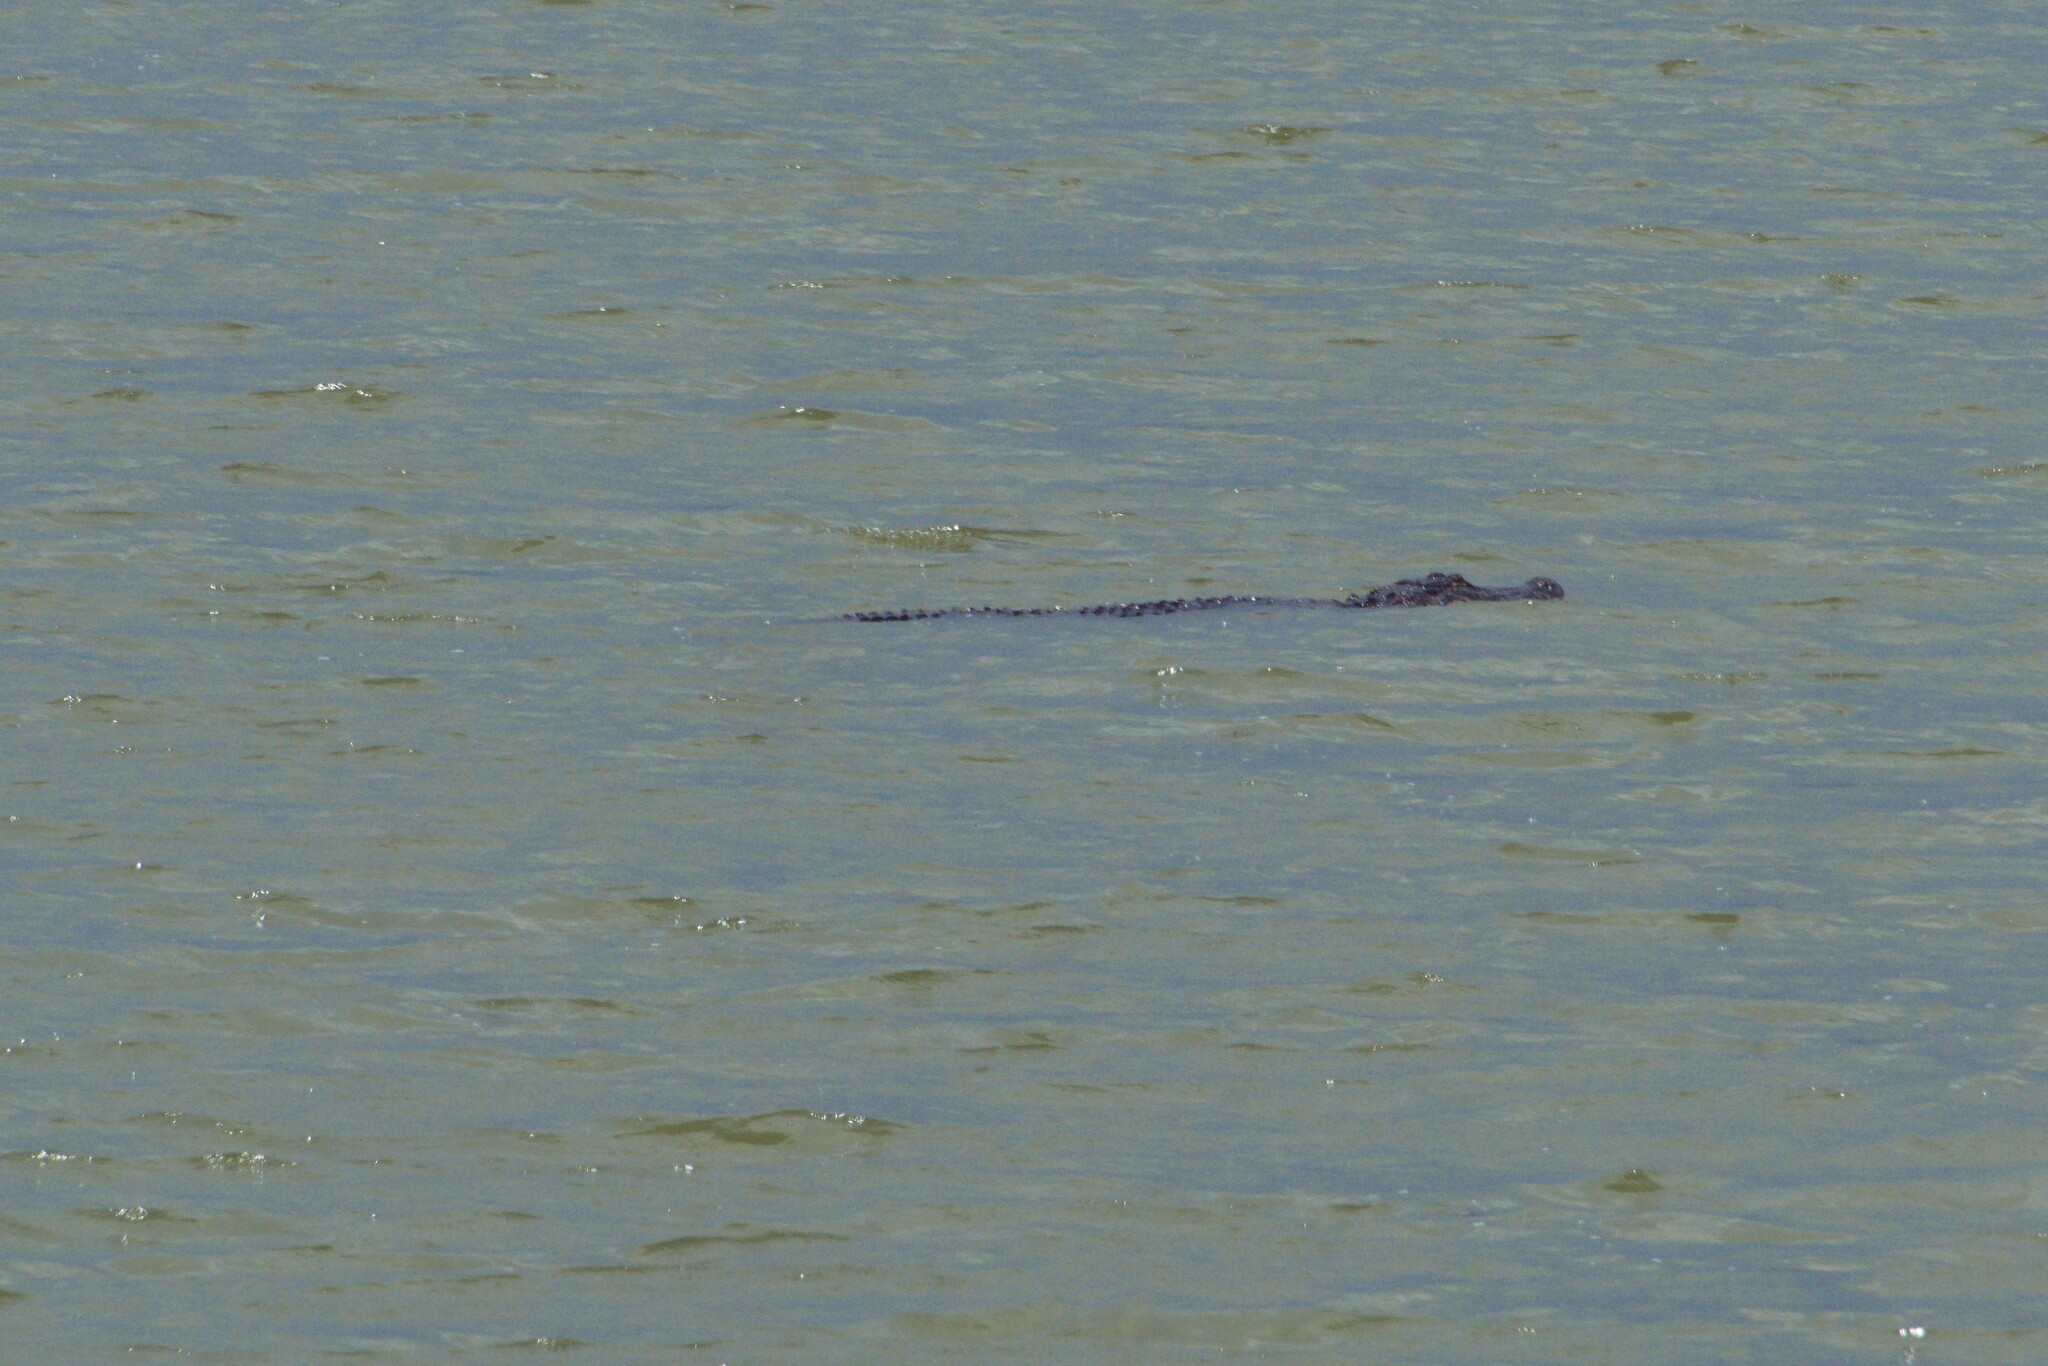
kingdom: Animalia
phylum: Chordata
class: Crocodylia
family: Alligatoridae
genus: Alligator
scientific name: Alligator mississippiensis
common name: American alligator
